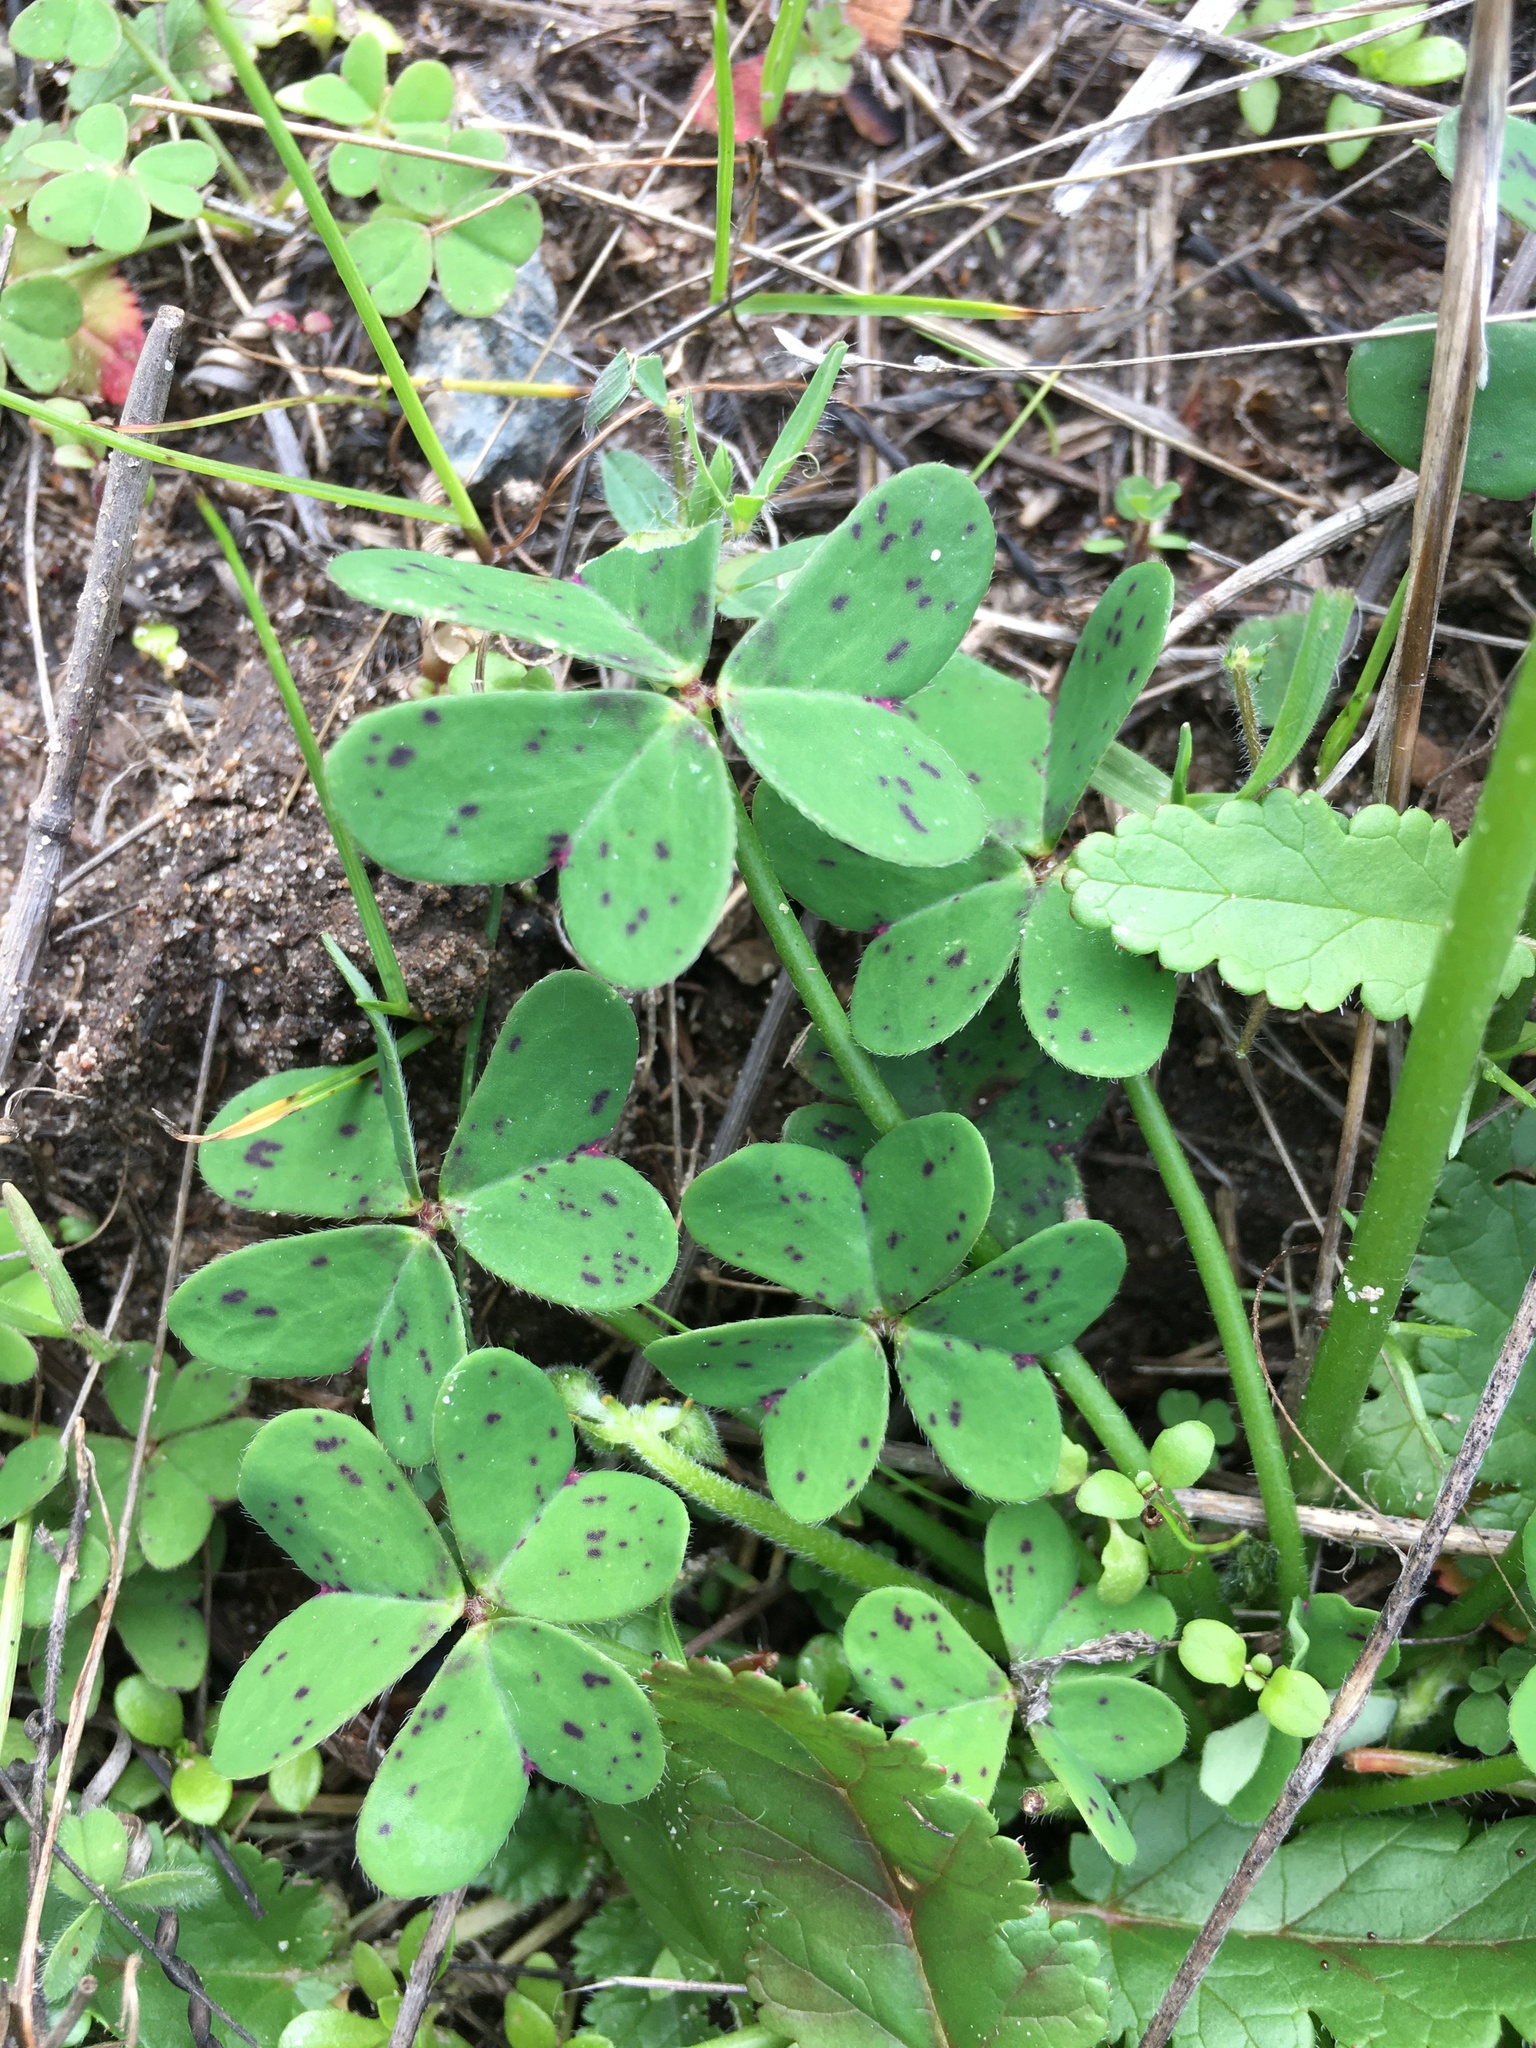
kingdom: Plantae
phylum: Tracheophyta
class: Magnoliopsida
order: Oxalidales
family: Oxalidaceae
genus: Oxalis
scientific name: Oxalis pes-caprae
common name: Bermuda-buttercup
